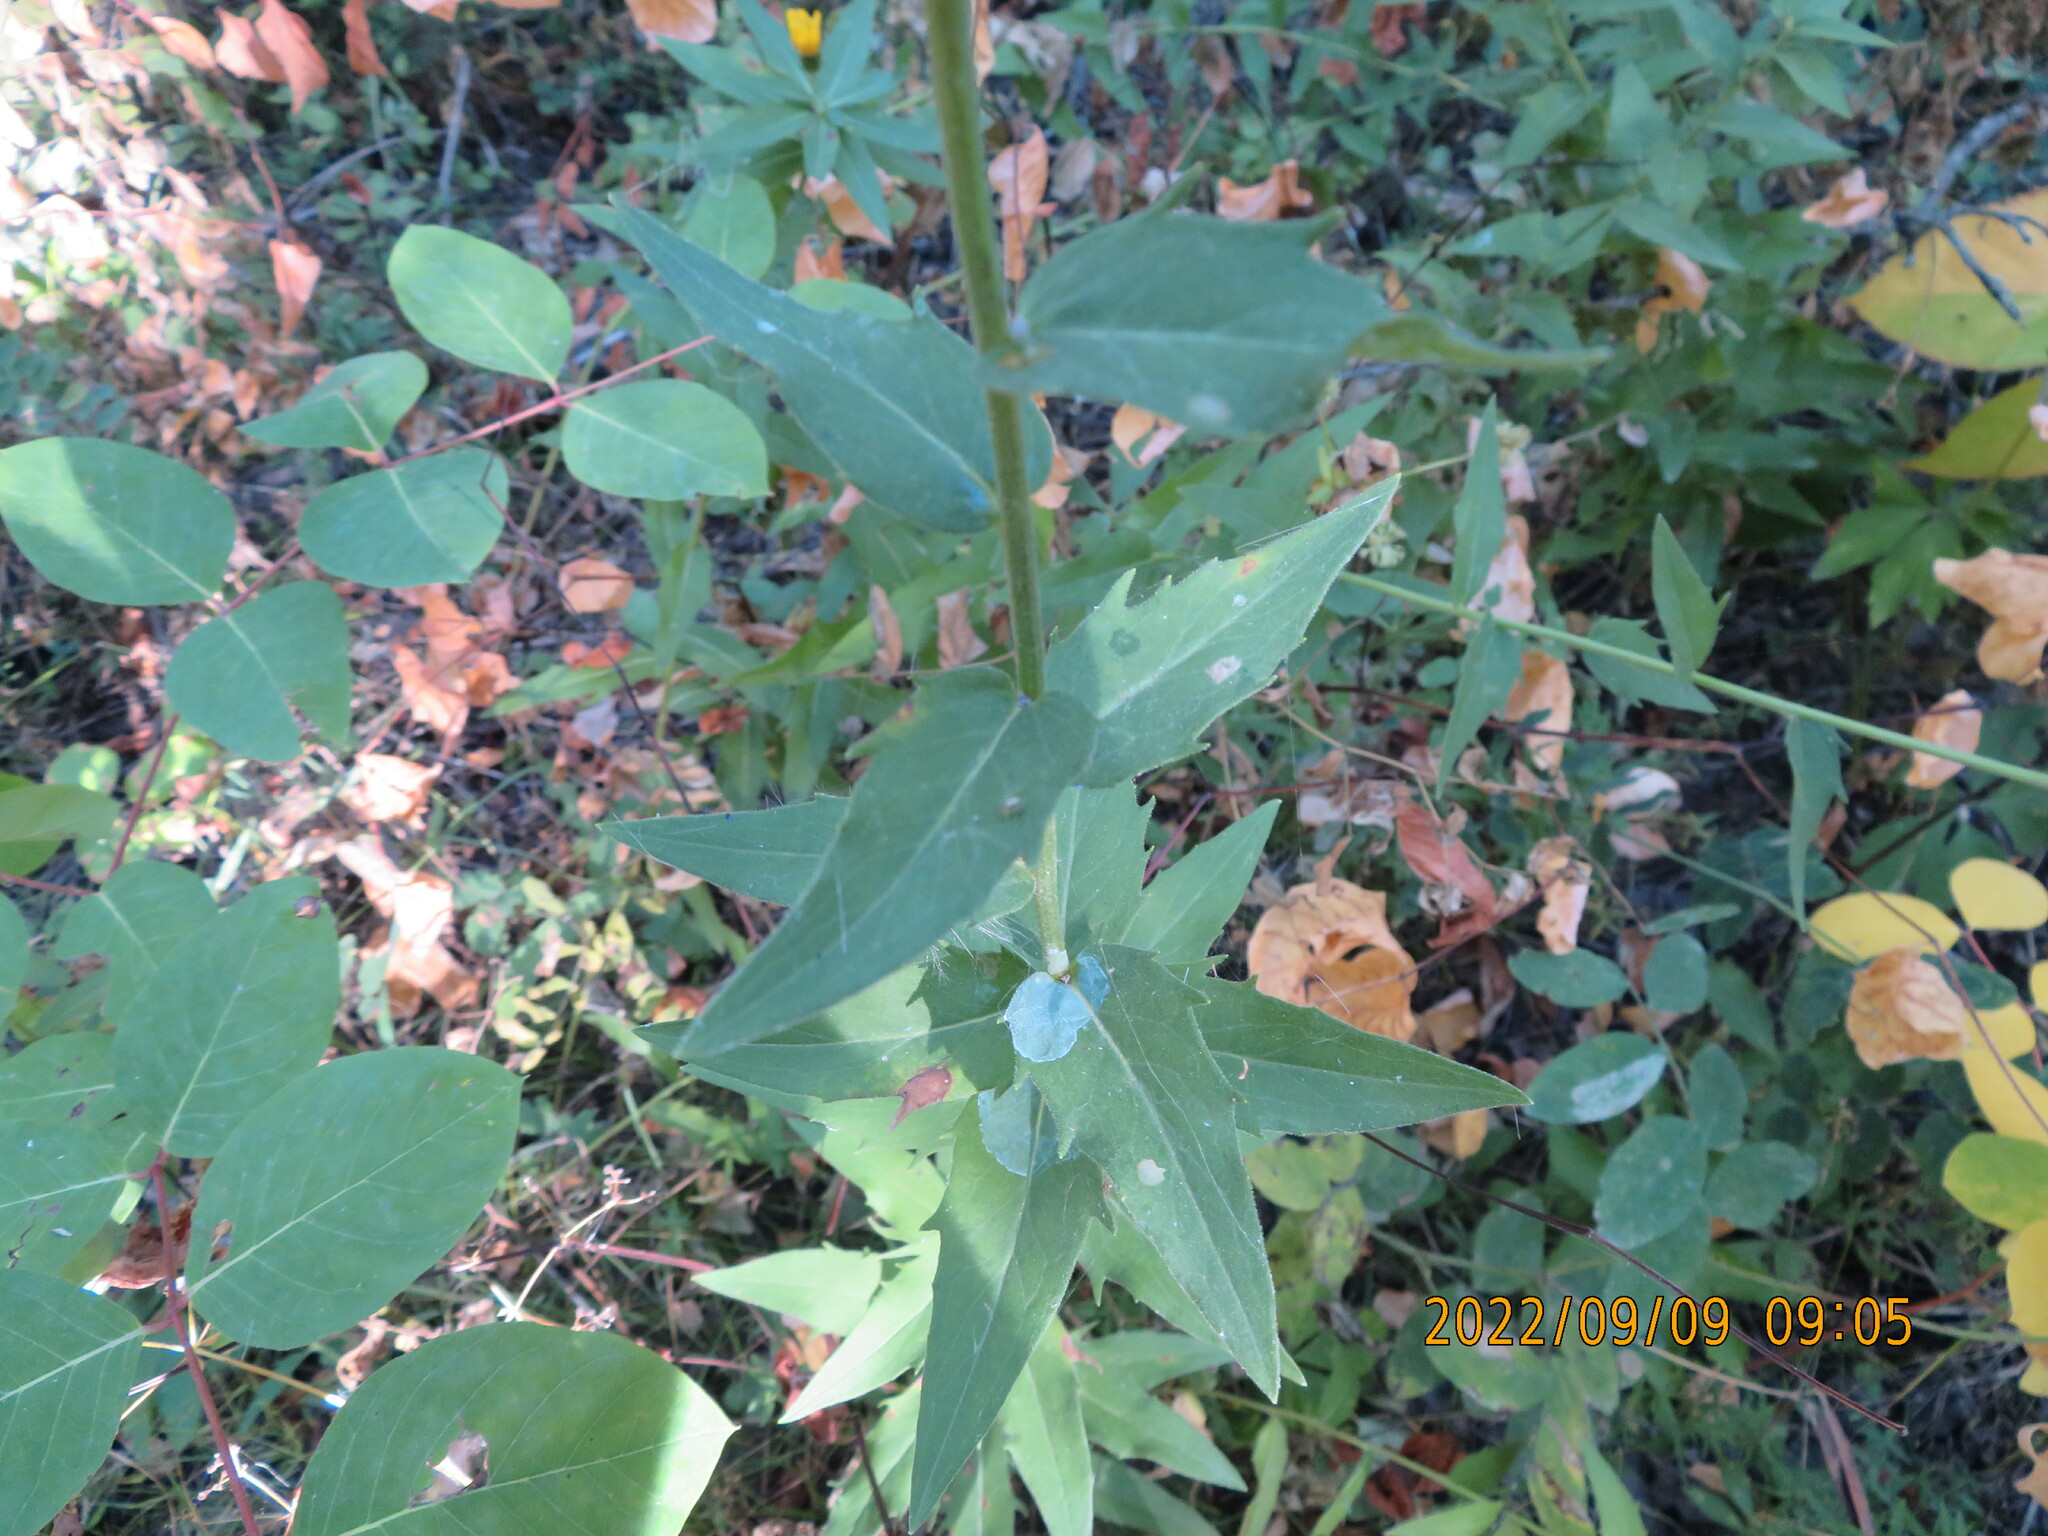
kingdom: Plantae
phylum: Tracheophyta
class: Magnoliopsida
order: Asterales
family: Asteraceae
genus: Hieracium
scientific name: Hieracium umbellatum
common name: Northern hawkweed
